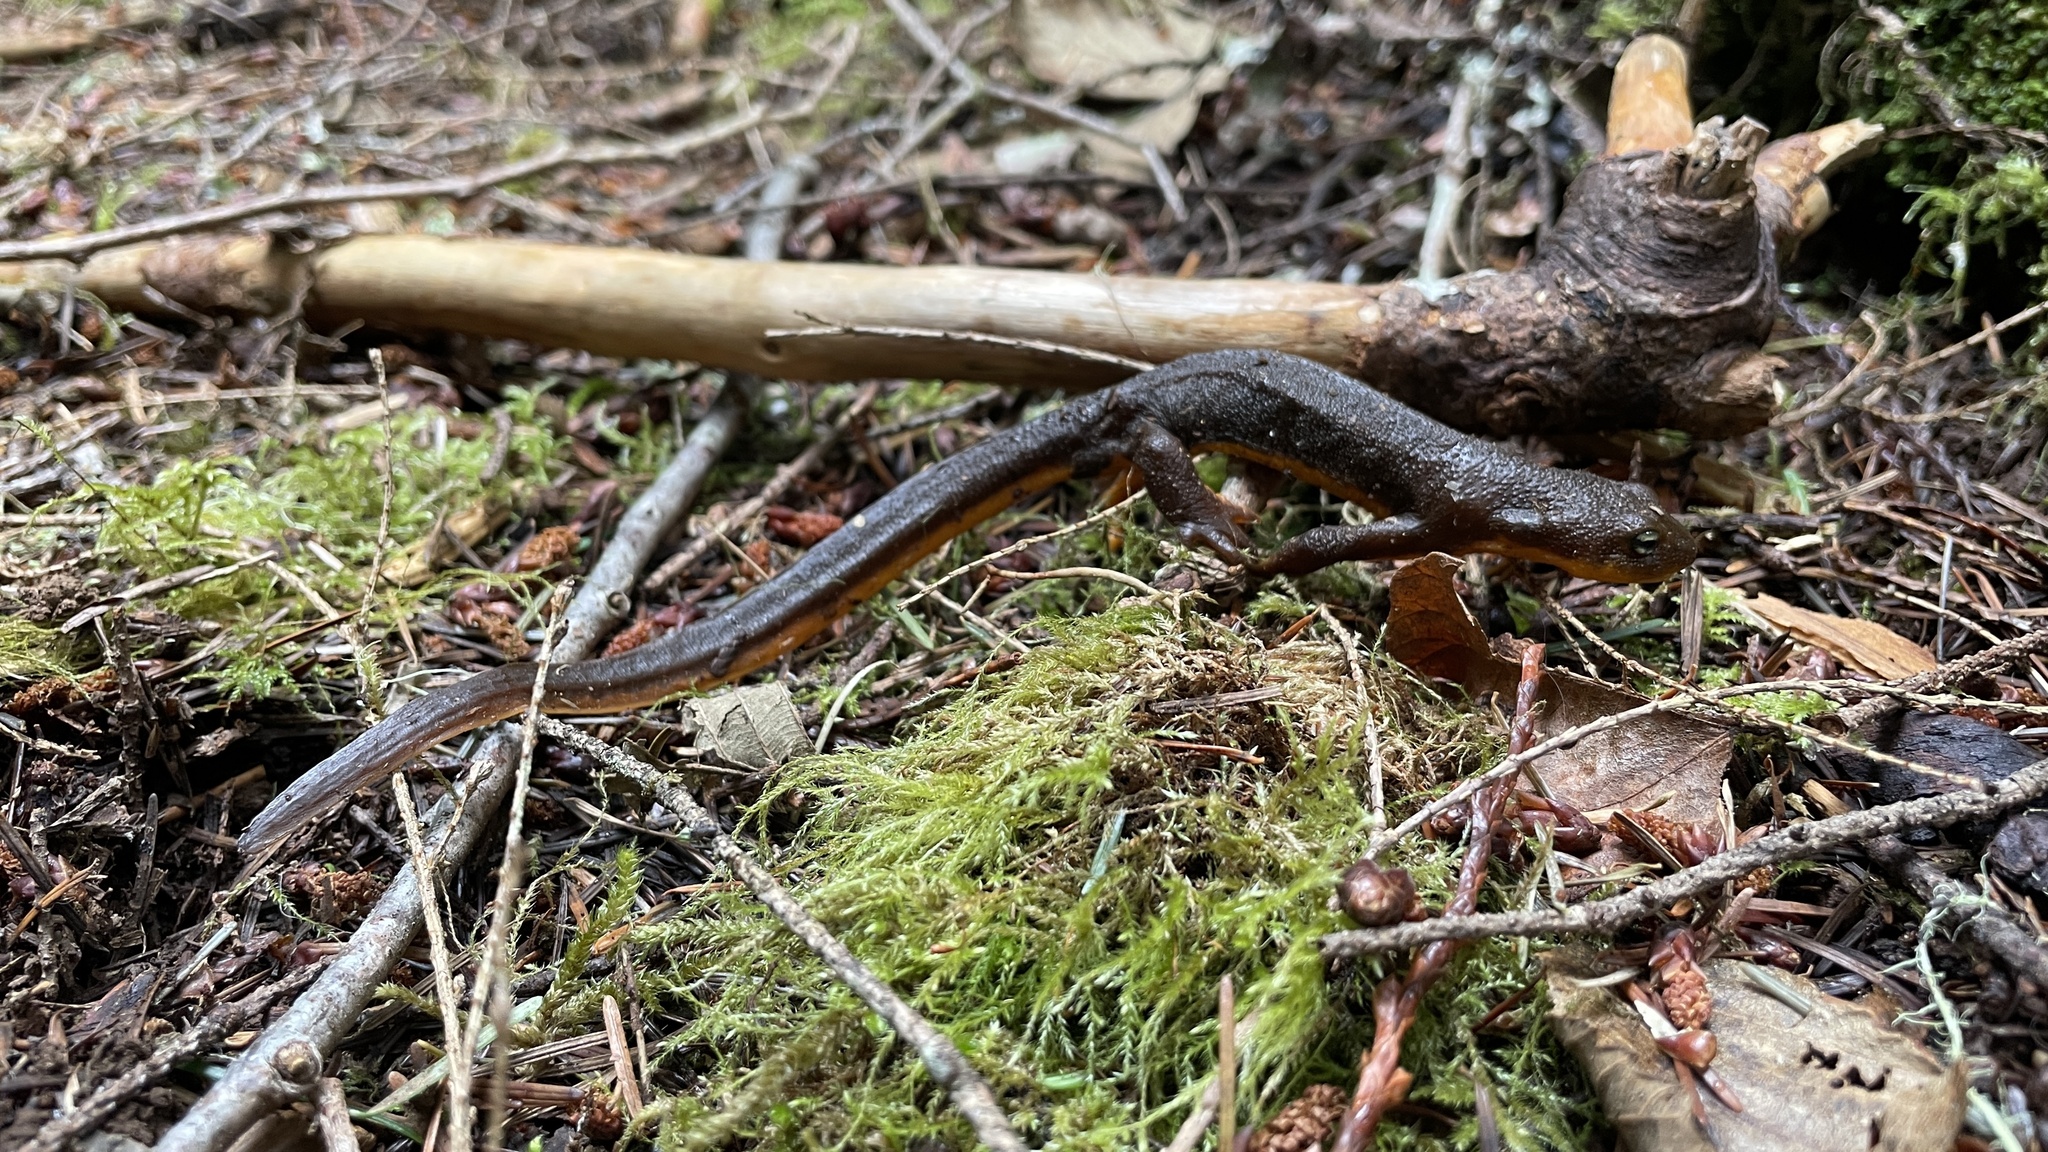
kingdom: Animalia
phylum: Chordata
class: Amphibia
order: Caudata
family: Salamandridae
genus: Taricha
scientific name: Taricha granulosa
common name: Roughskin newt
